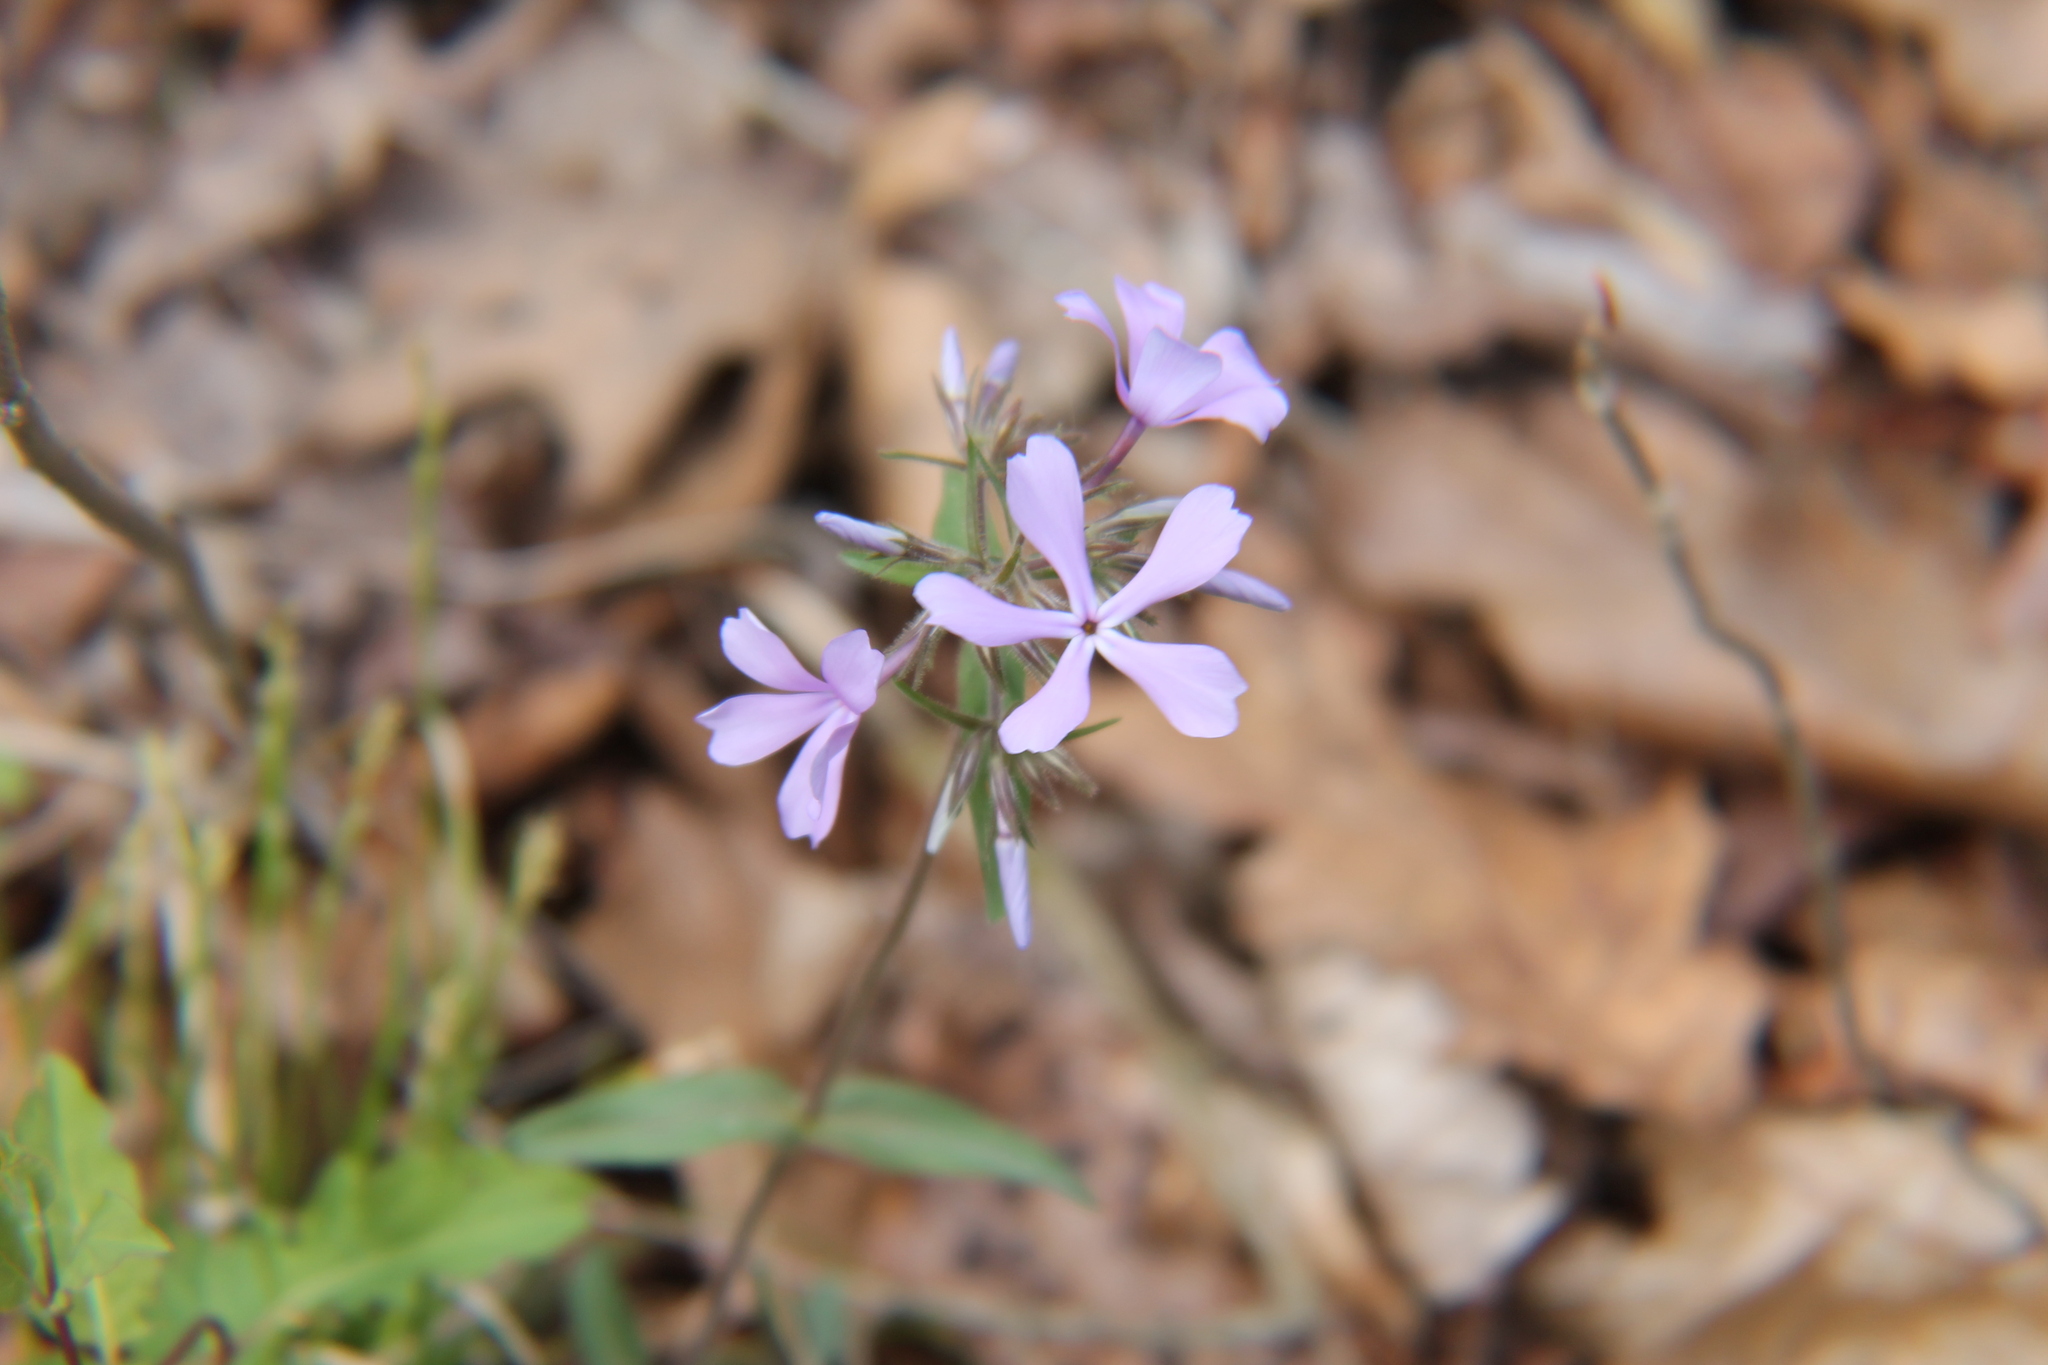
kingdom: Plantae
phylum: Tracheophyta
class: Magnoliopsida
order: Ericales
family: Polemoniaceae
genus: Phlox
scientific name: Phlox divaricata
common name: Blue phlox
